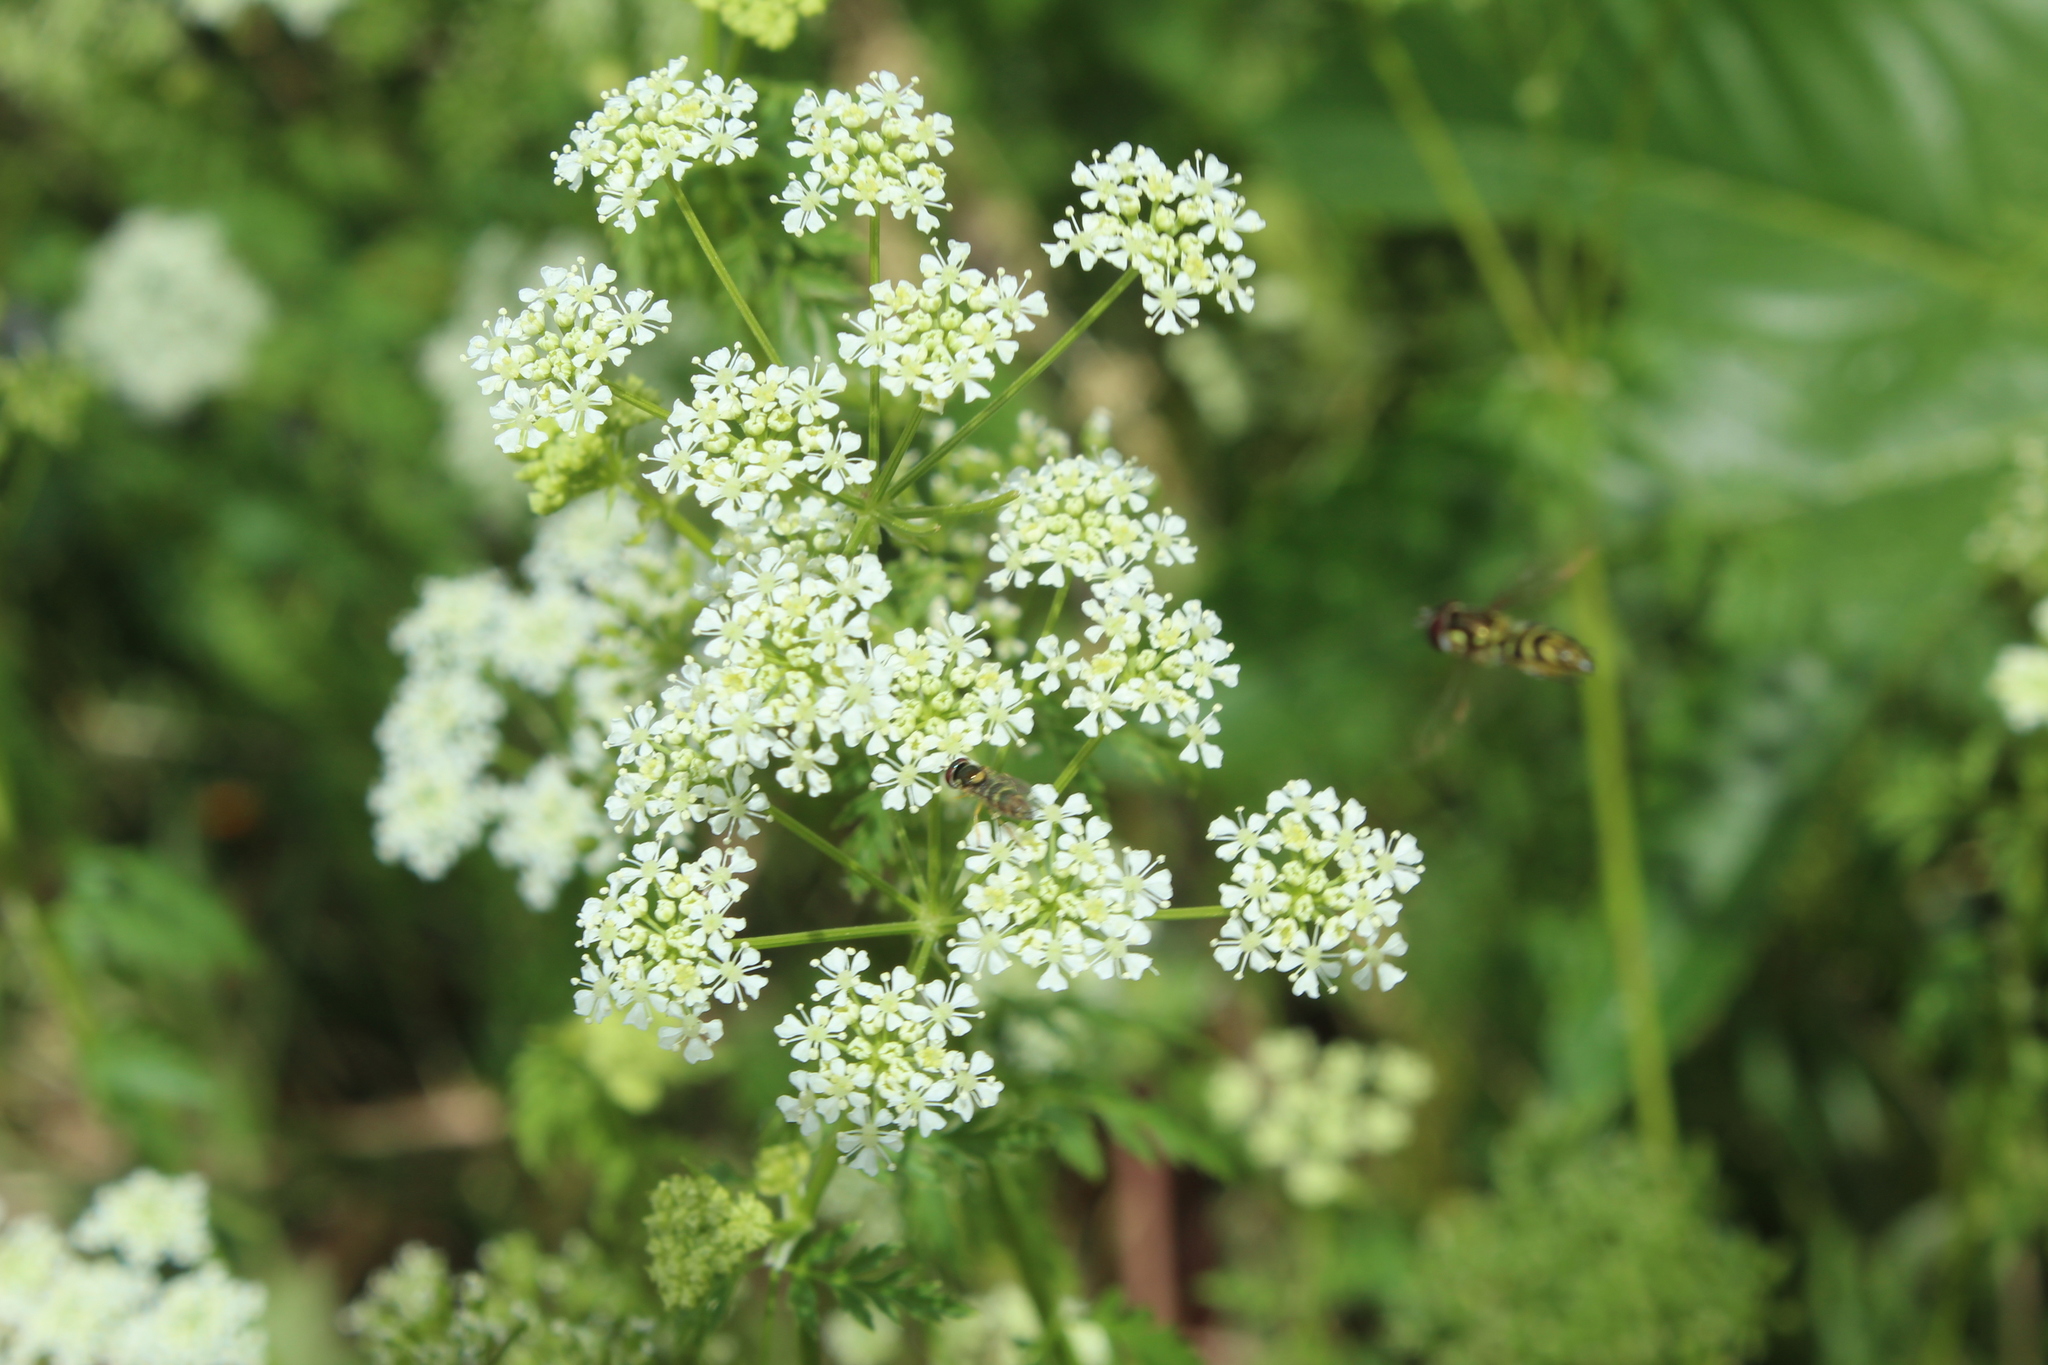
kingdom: Plantae
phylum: Tracheophyta
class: Magnoliopsida
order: Apiales
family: Apiaceae
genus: Conium
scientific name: Conium maculatum
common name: Hemlock
